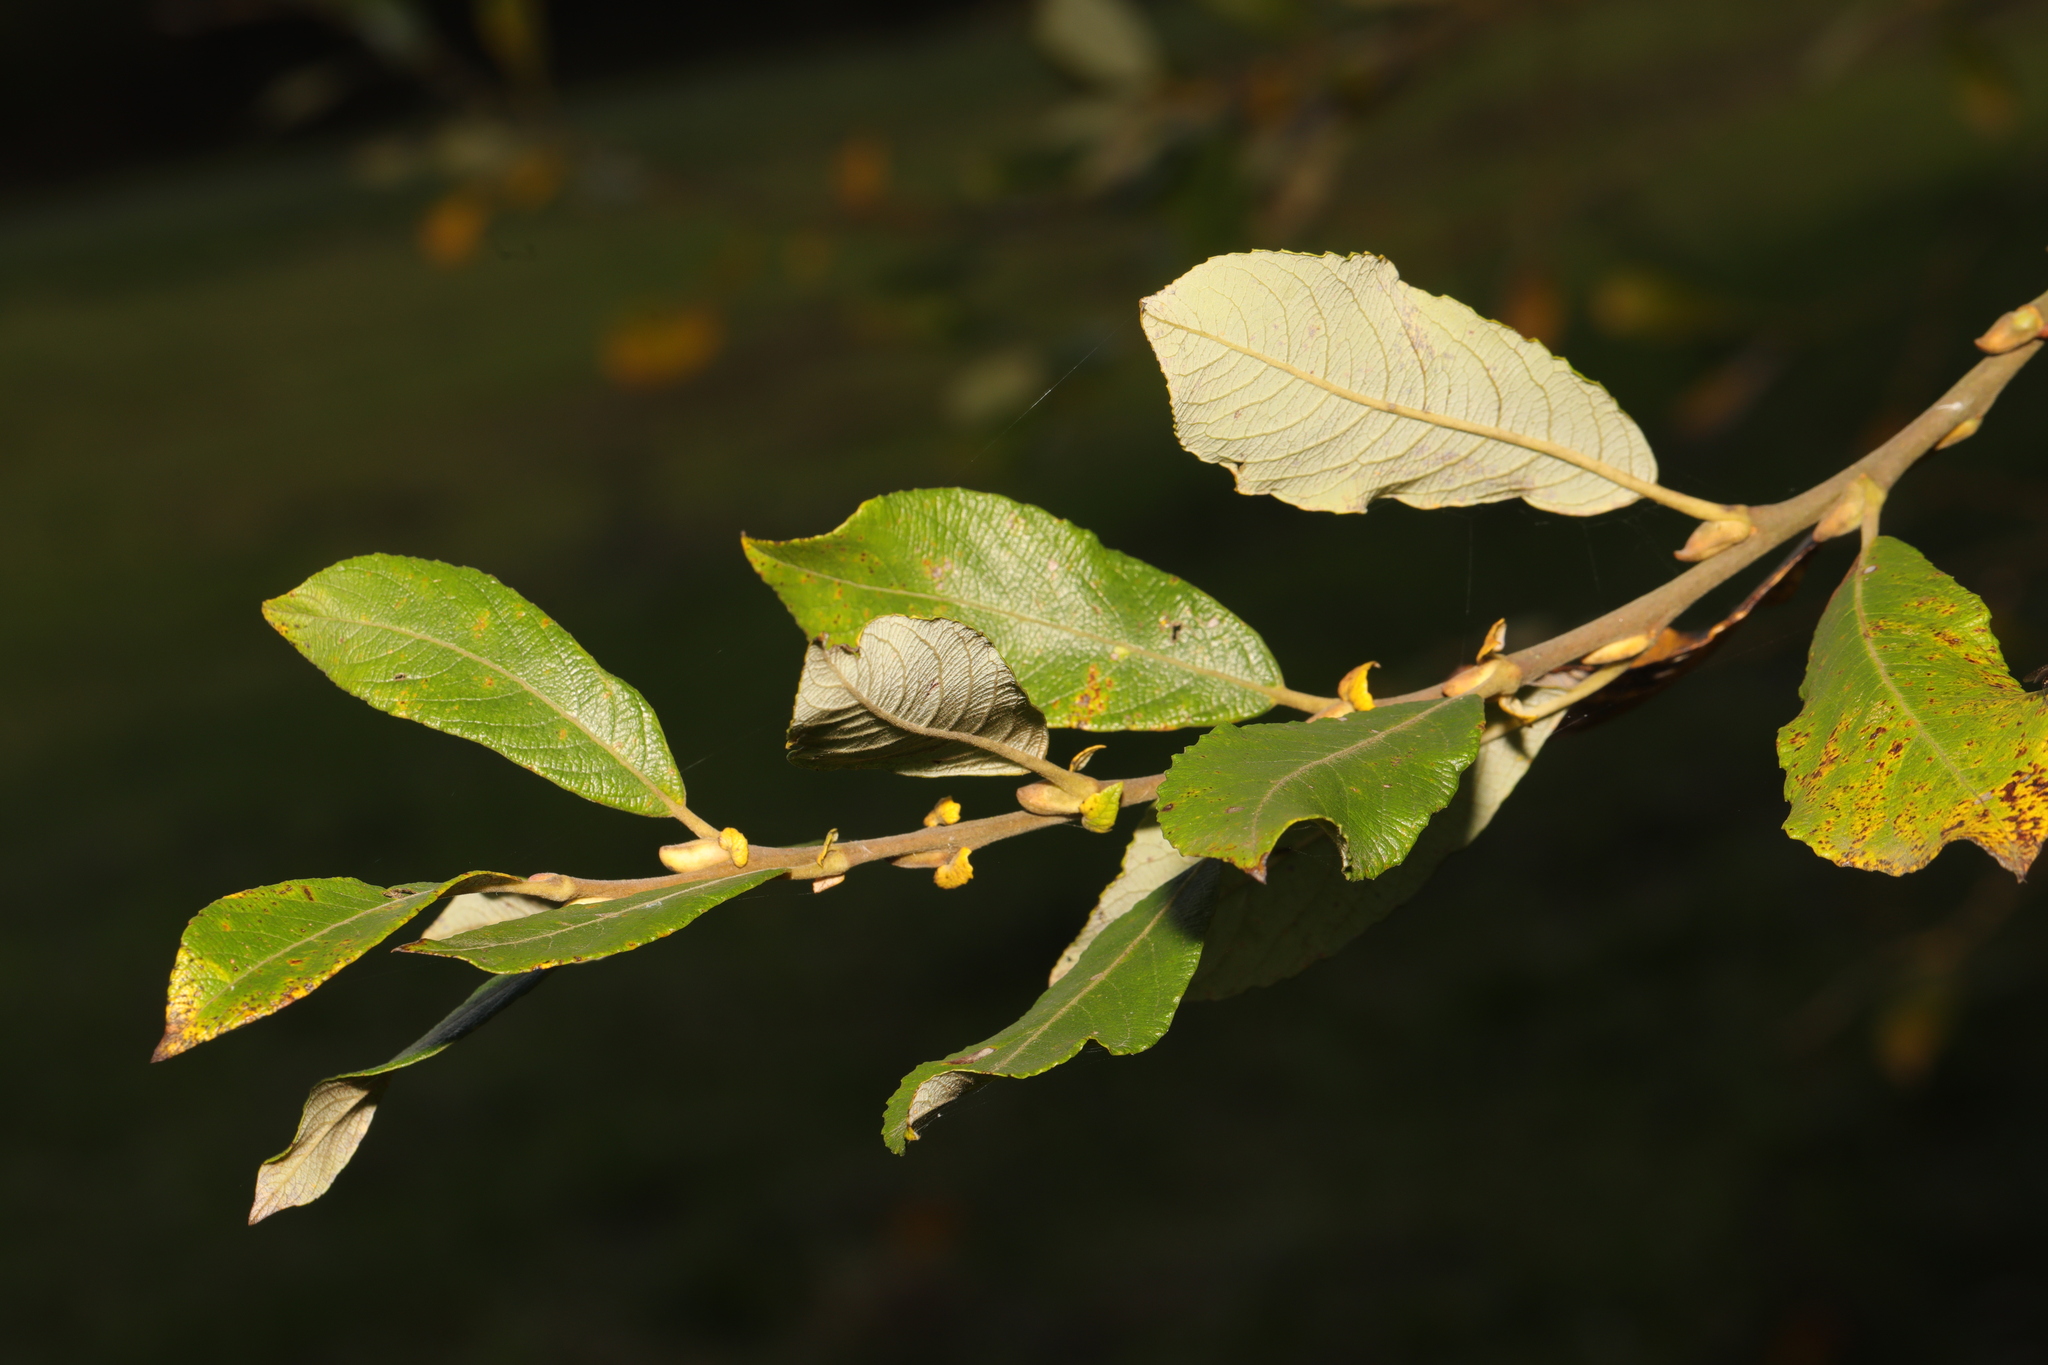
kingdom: Plantae
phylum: Tracheophyta
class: Magnoliopsida
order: Malpighiales
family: Salicaceae
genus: Salix
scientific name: Salix atrocinerea
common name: Rusty willow
